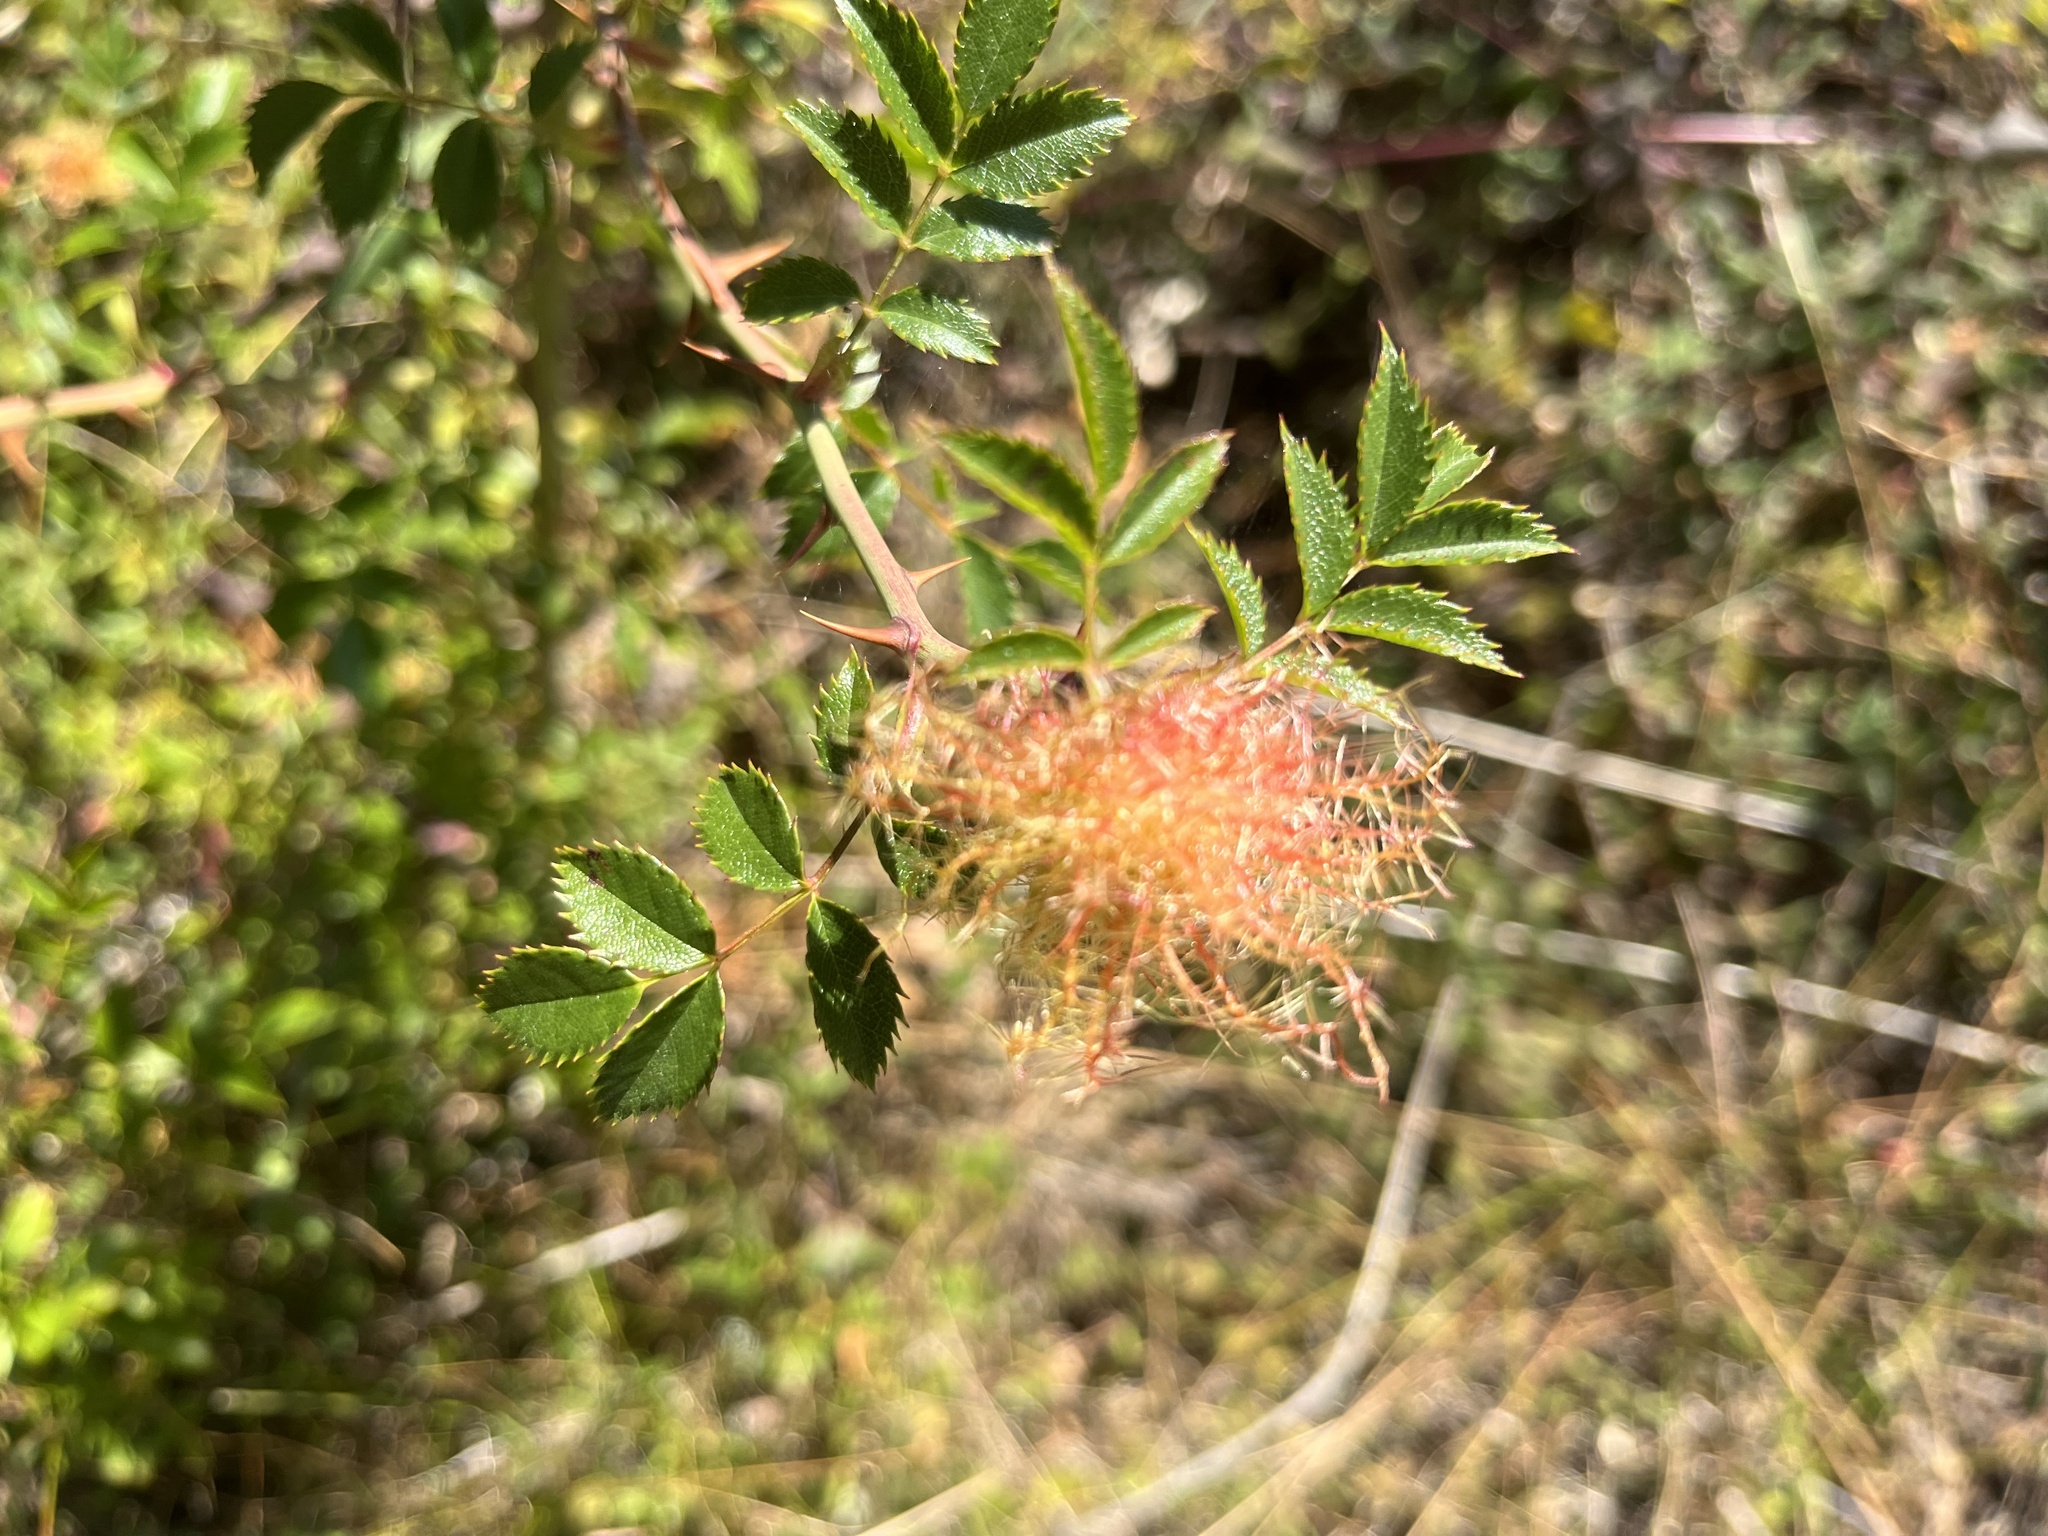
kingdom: Animalia
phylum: Arthropoda
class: Insecta
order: Hymenoptera
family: Cynipidae
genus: Diplolepis
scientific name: Diplolepis rosae
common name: Bedeguar gall
